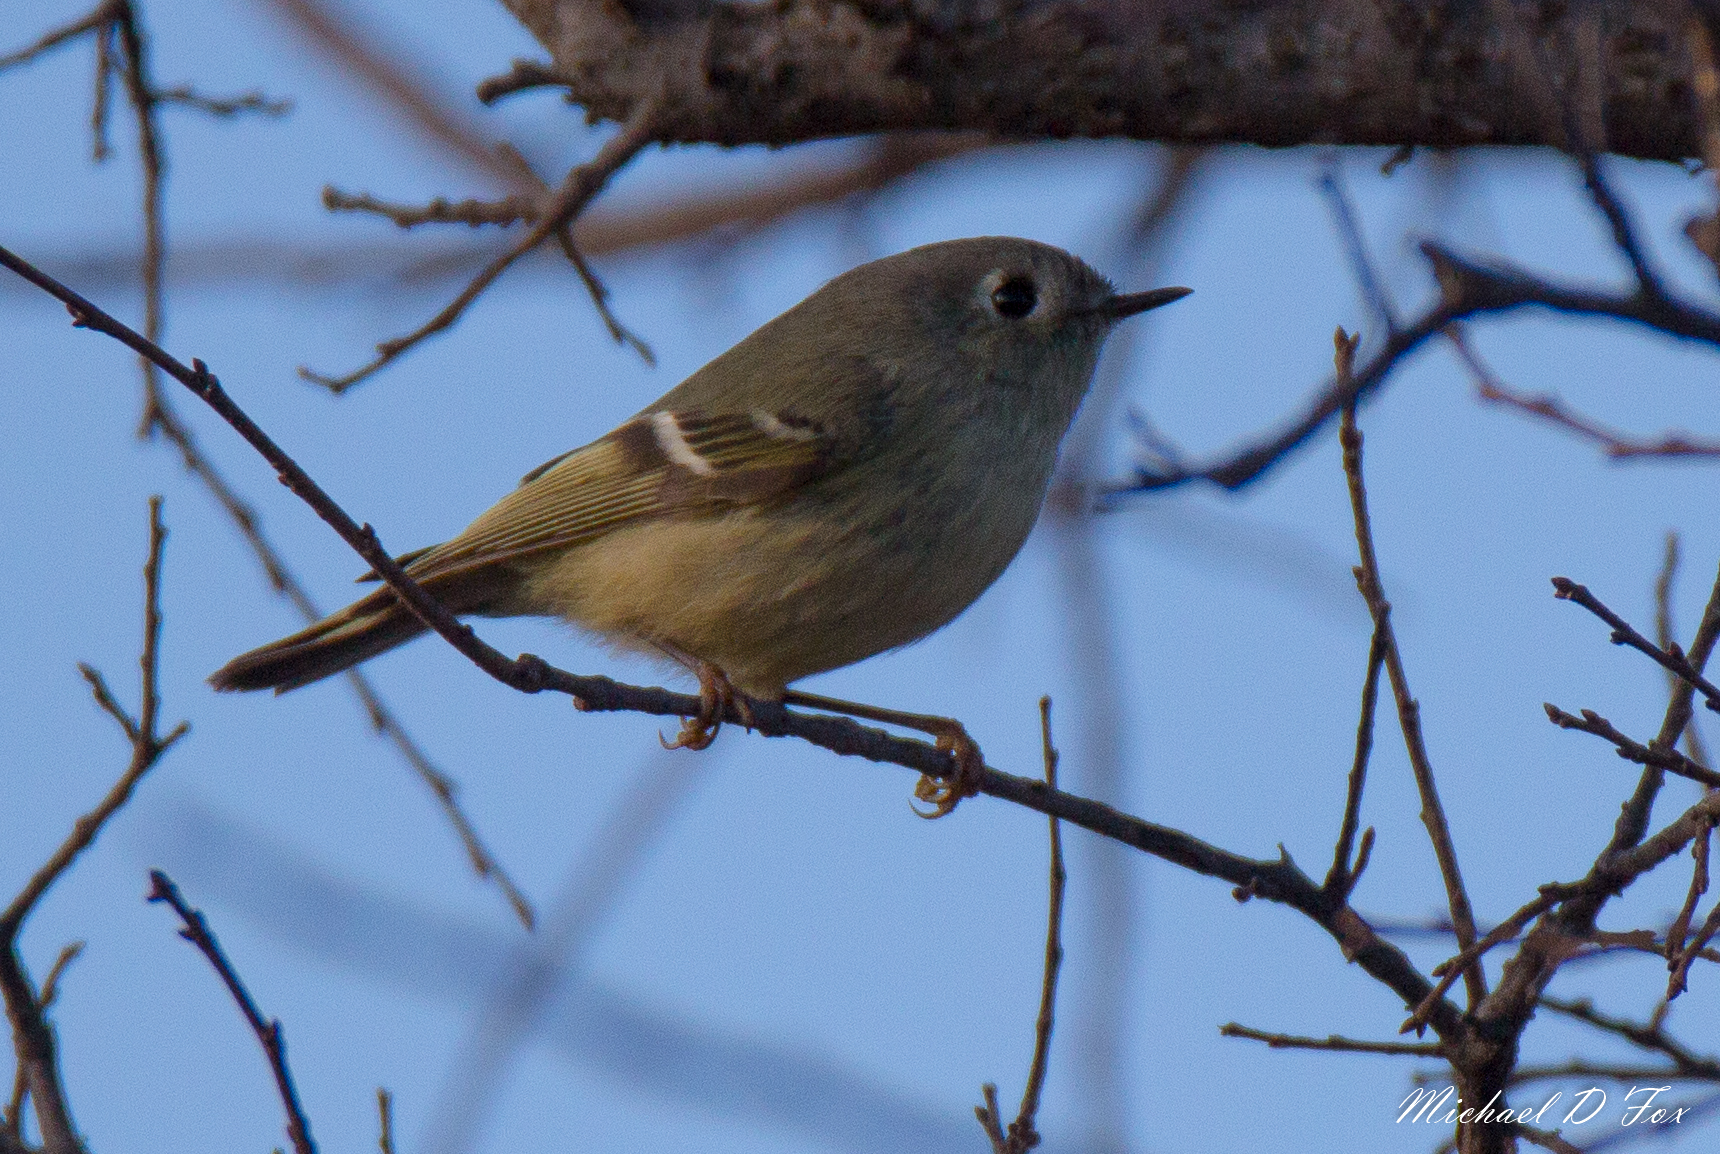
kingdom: Animalia
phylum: Chordata
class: Aves
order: Passeriformes
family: Regulidae
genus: Regulus
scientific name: Regulus calendula
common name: Ruby-crowned kinglet
